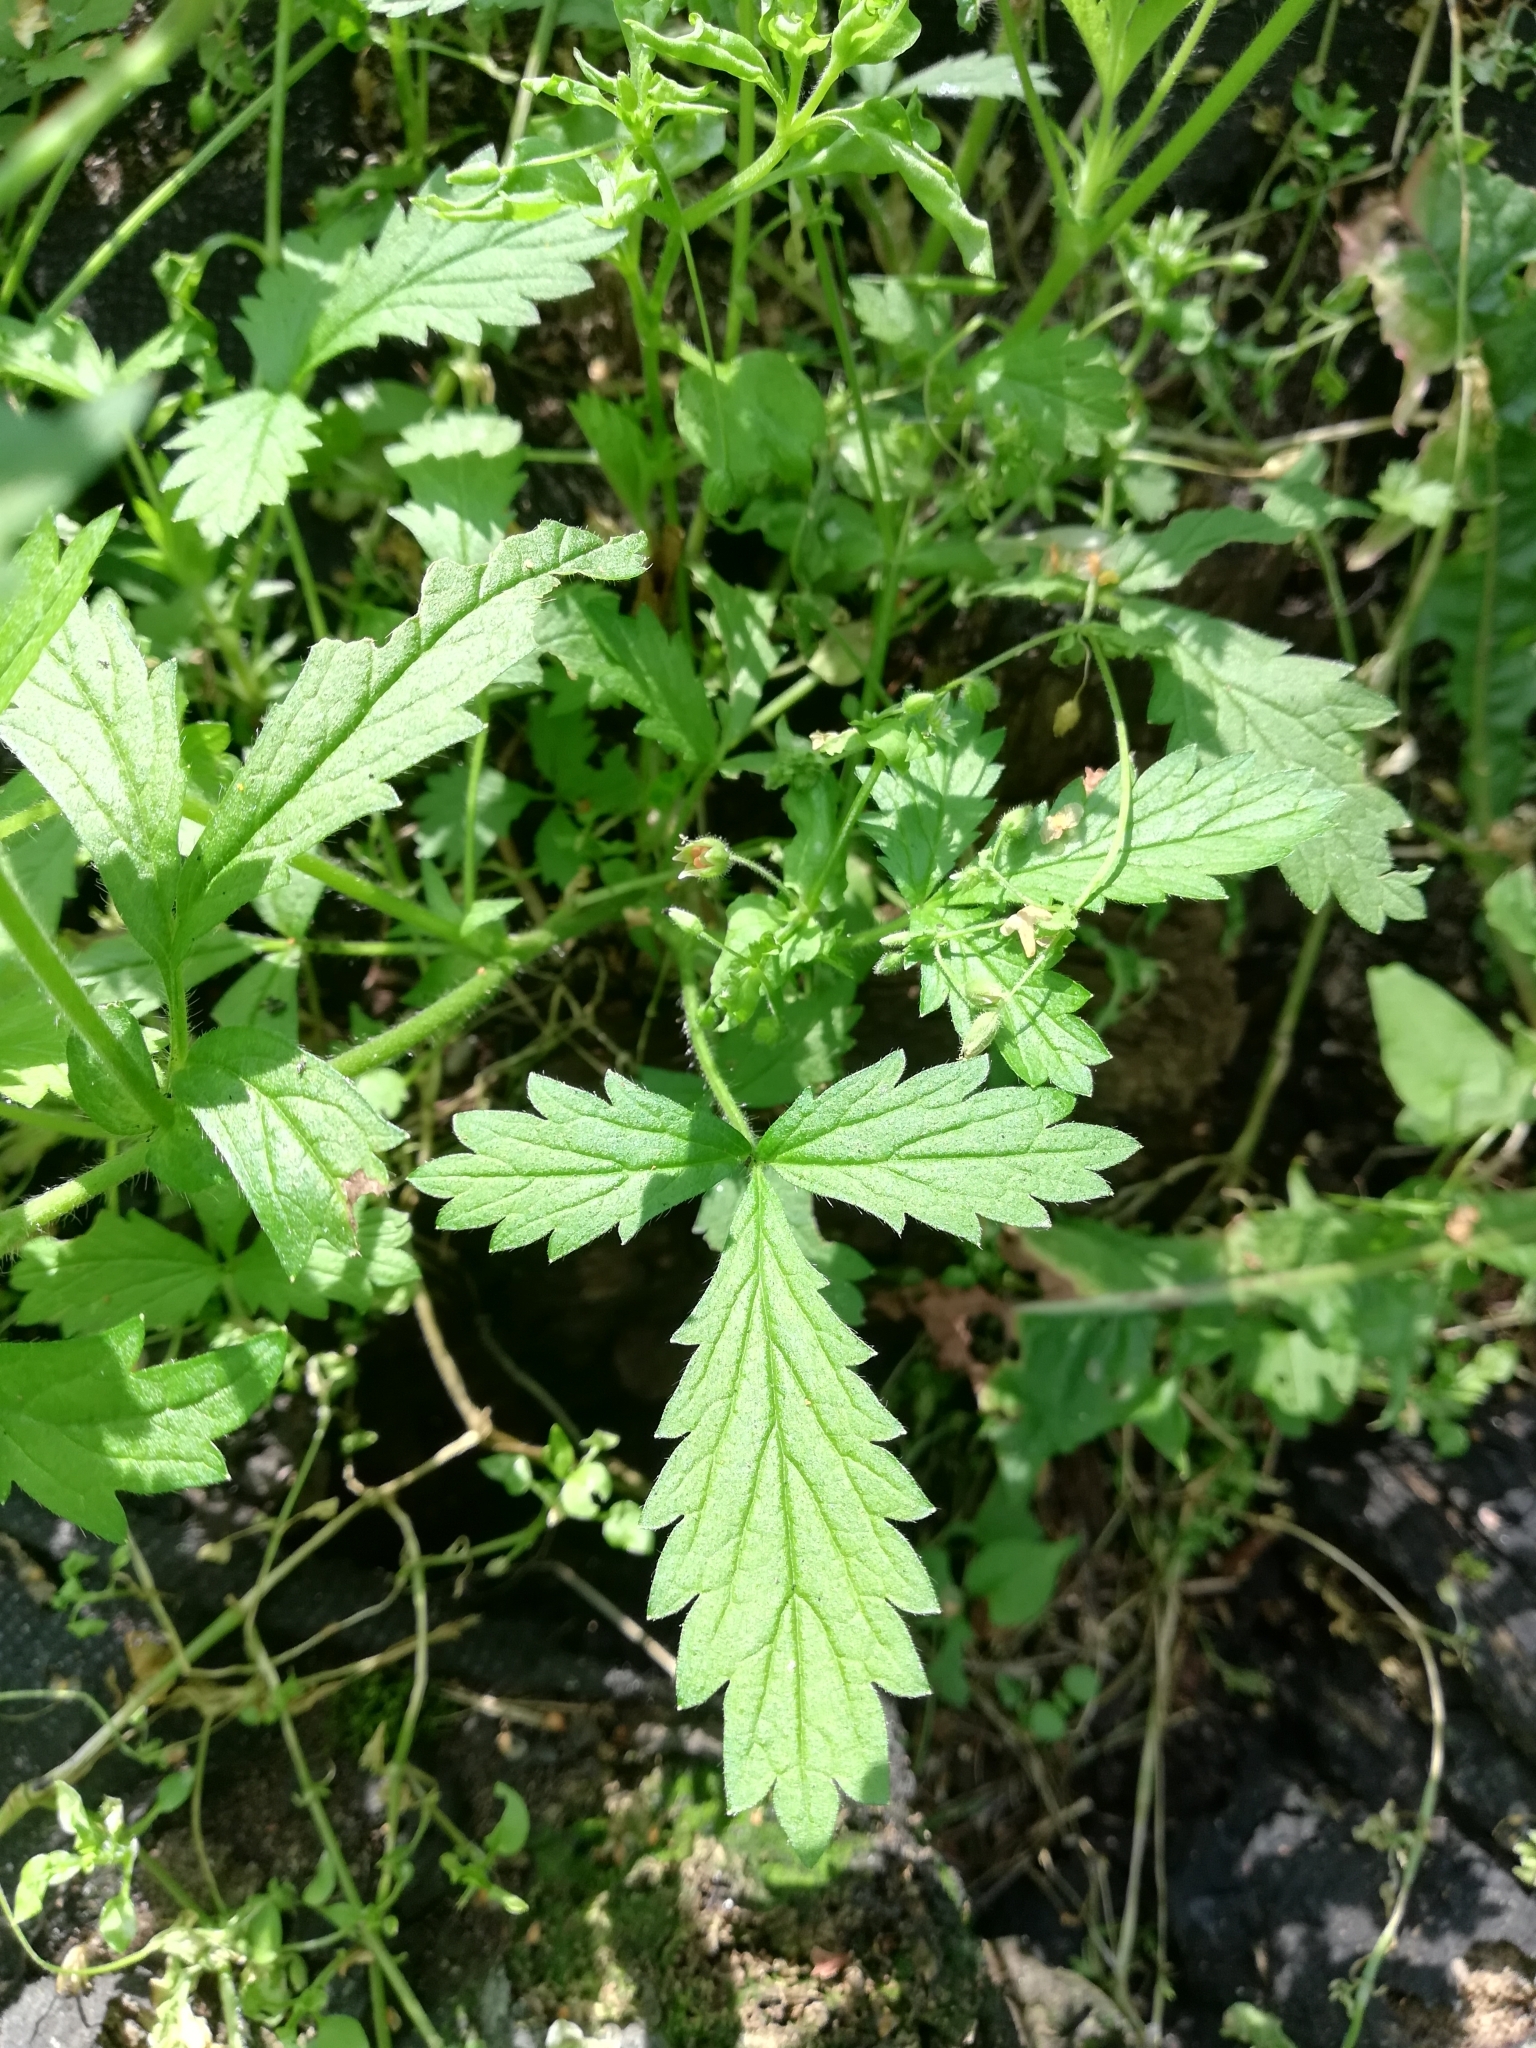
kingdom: Plantae
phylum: Tracheophyta
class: Magnoliopsida
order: Rosales
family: Rosaceae
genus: Potentilla
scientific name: Potentilla norvegica
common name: Ternate-leaved cinquefoil
